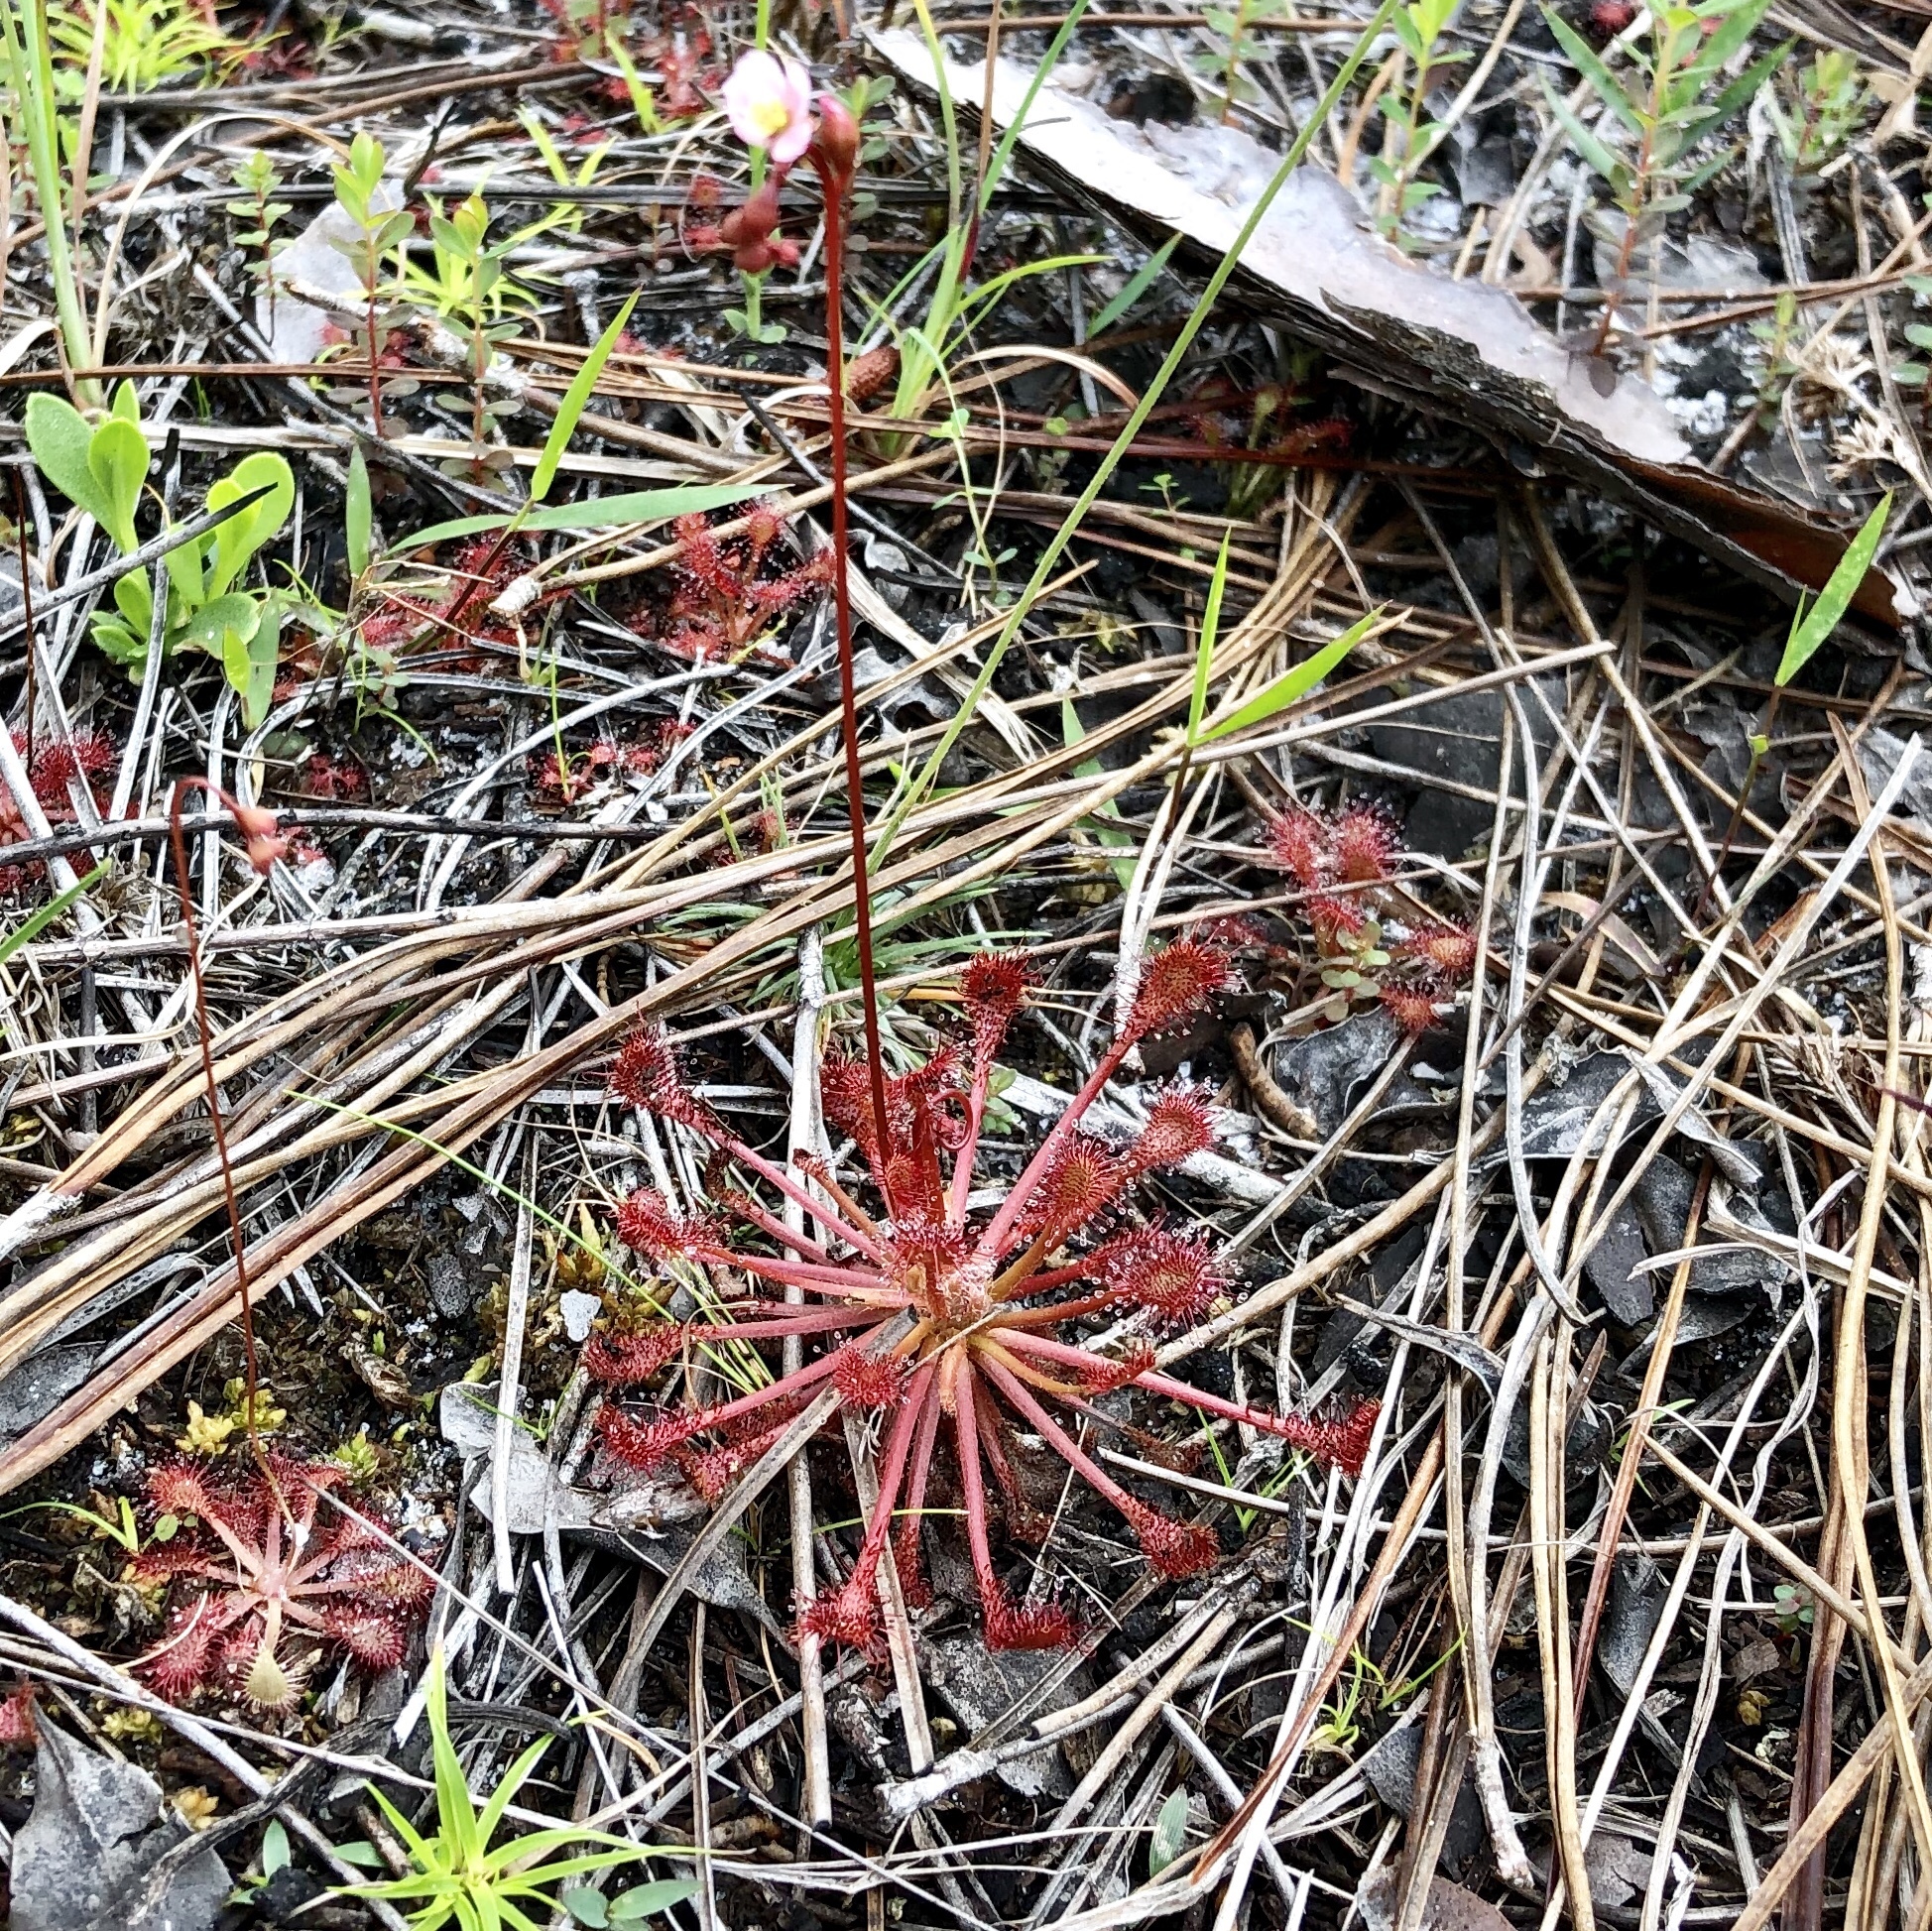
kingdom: Plantae
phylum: Tracheophyta
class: Magnoliopsida
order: Caryophyllales
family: Droseraceae
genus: Drosera
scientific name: Drosera capillaris
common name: Pink sundew
